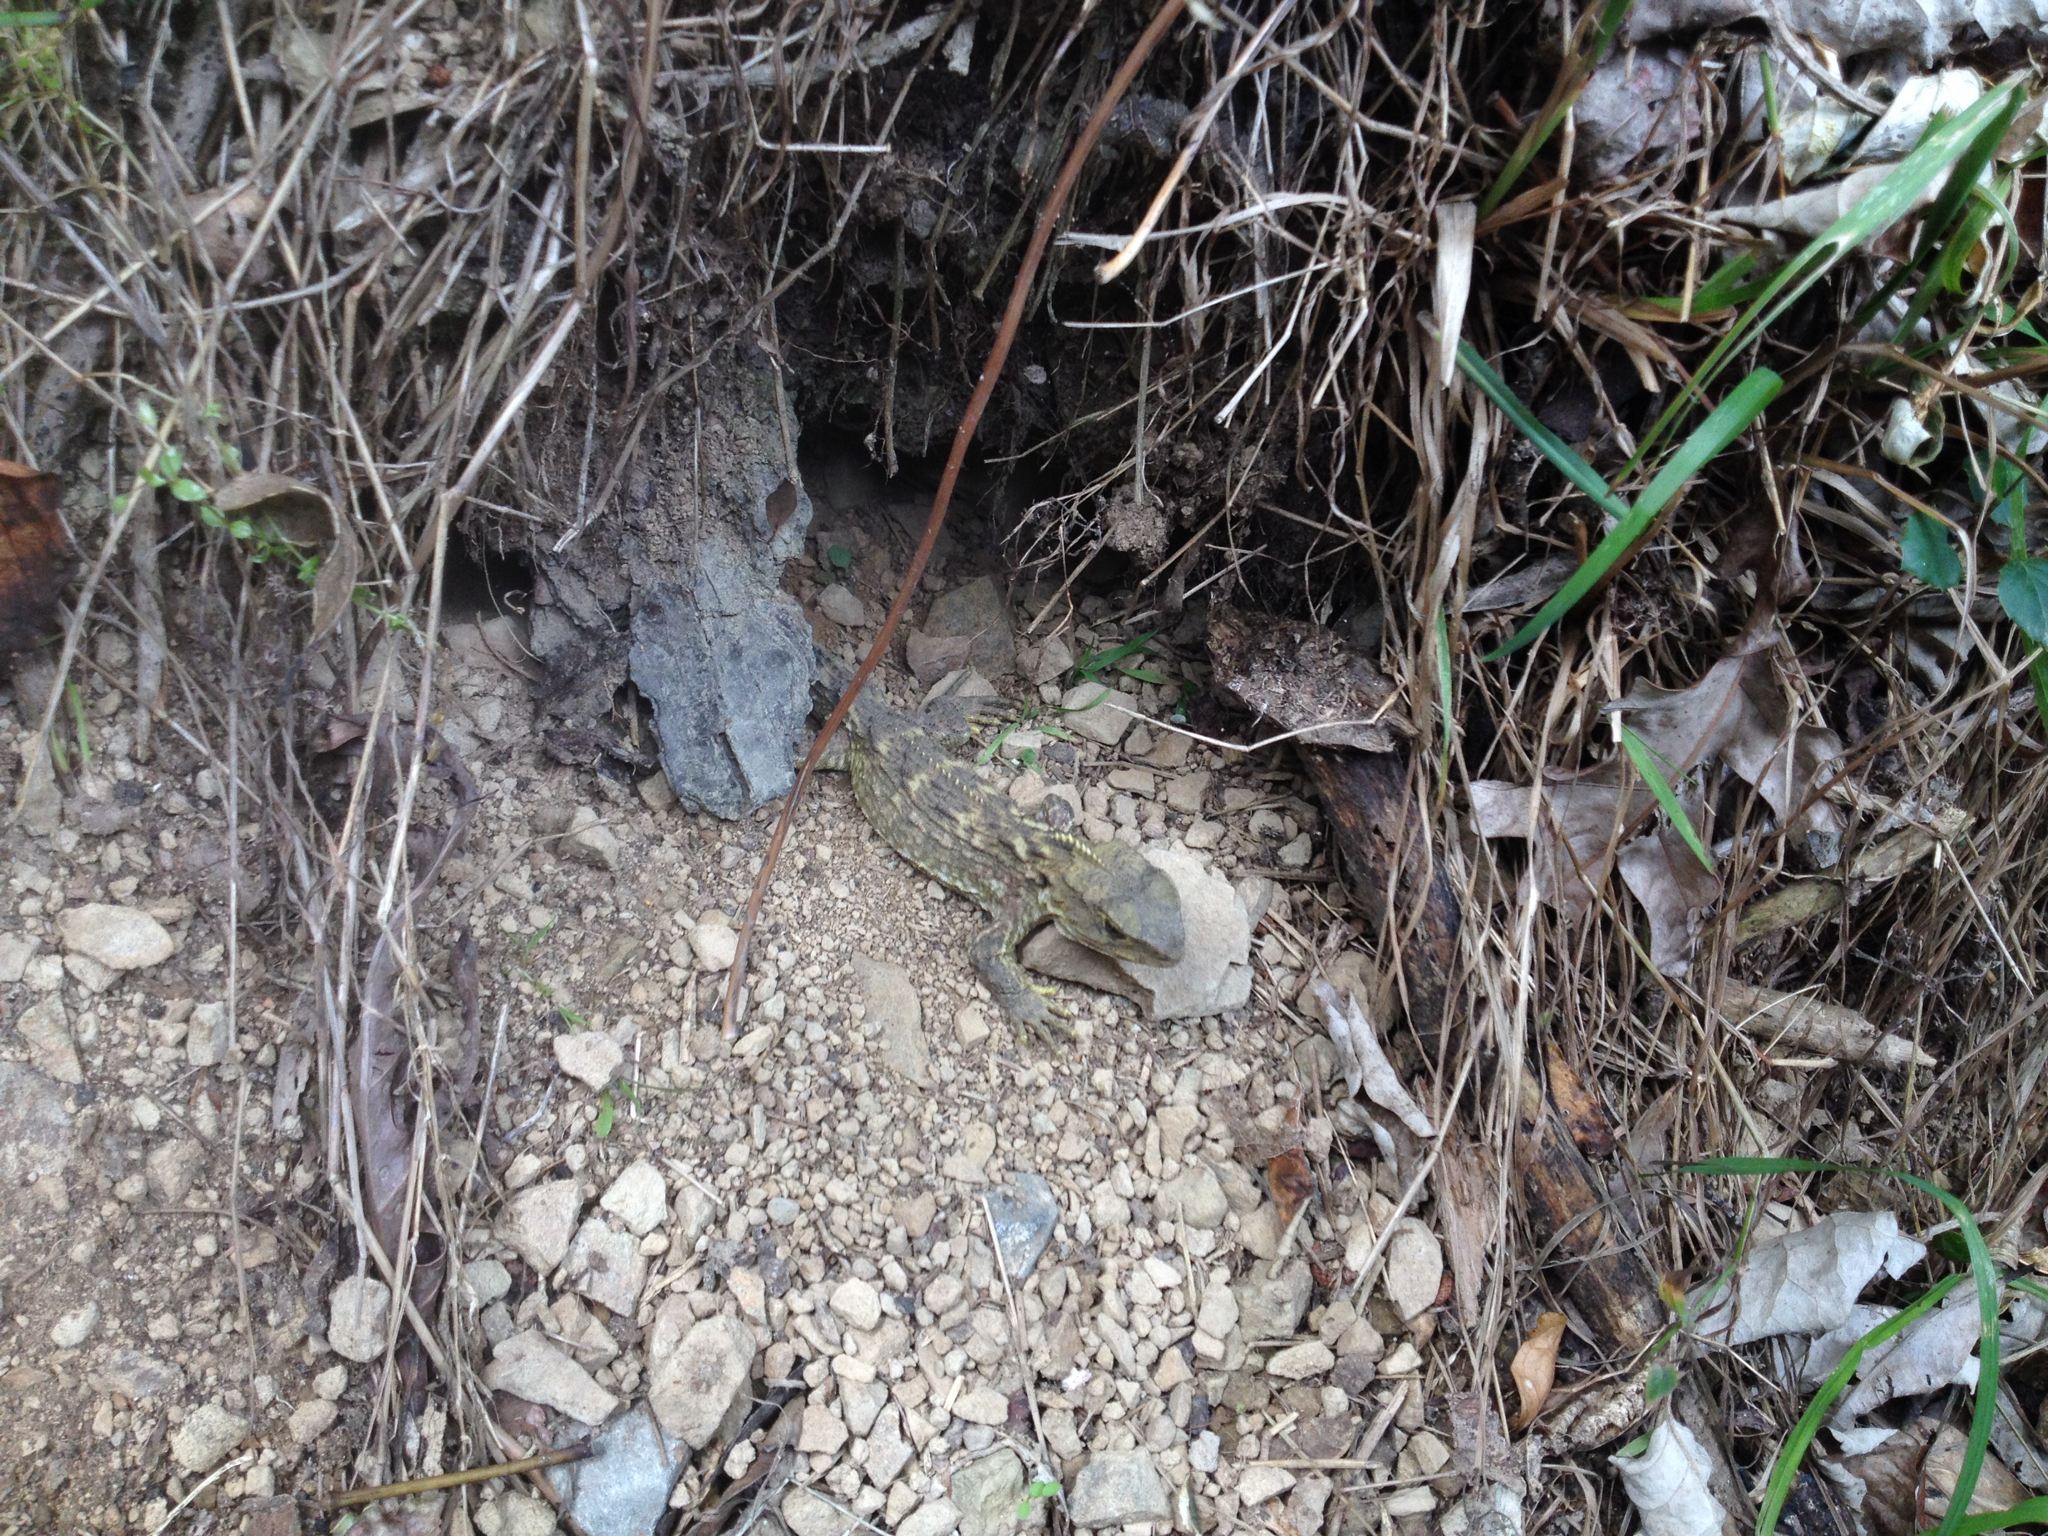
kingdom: Animalia
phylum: Chordata
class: Sphenodontia
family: Sphenodontidae
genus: Sphenodon
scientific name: Sphenodon punctatus
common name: Tuatara
